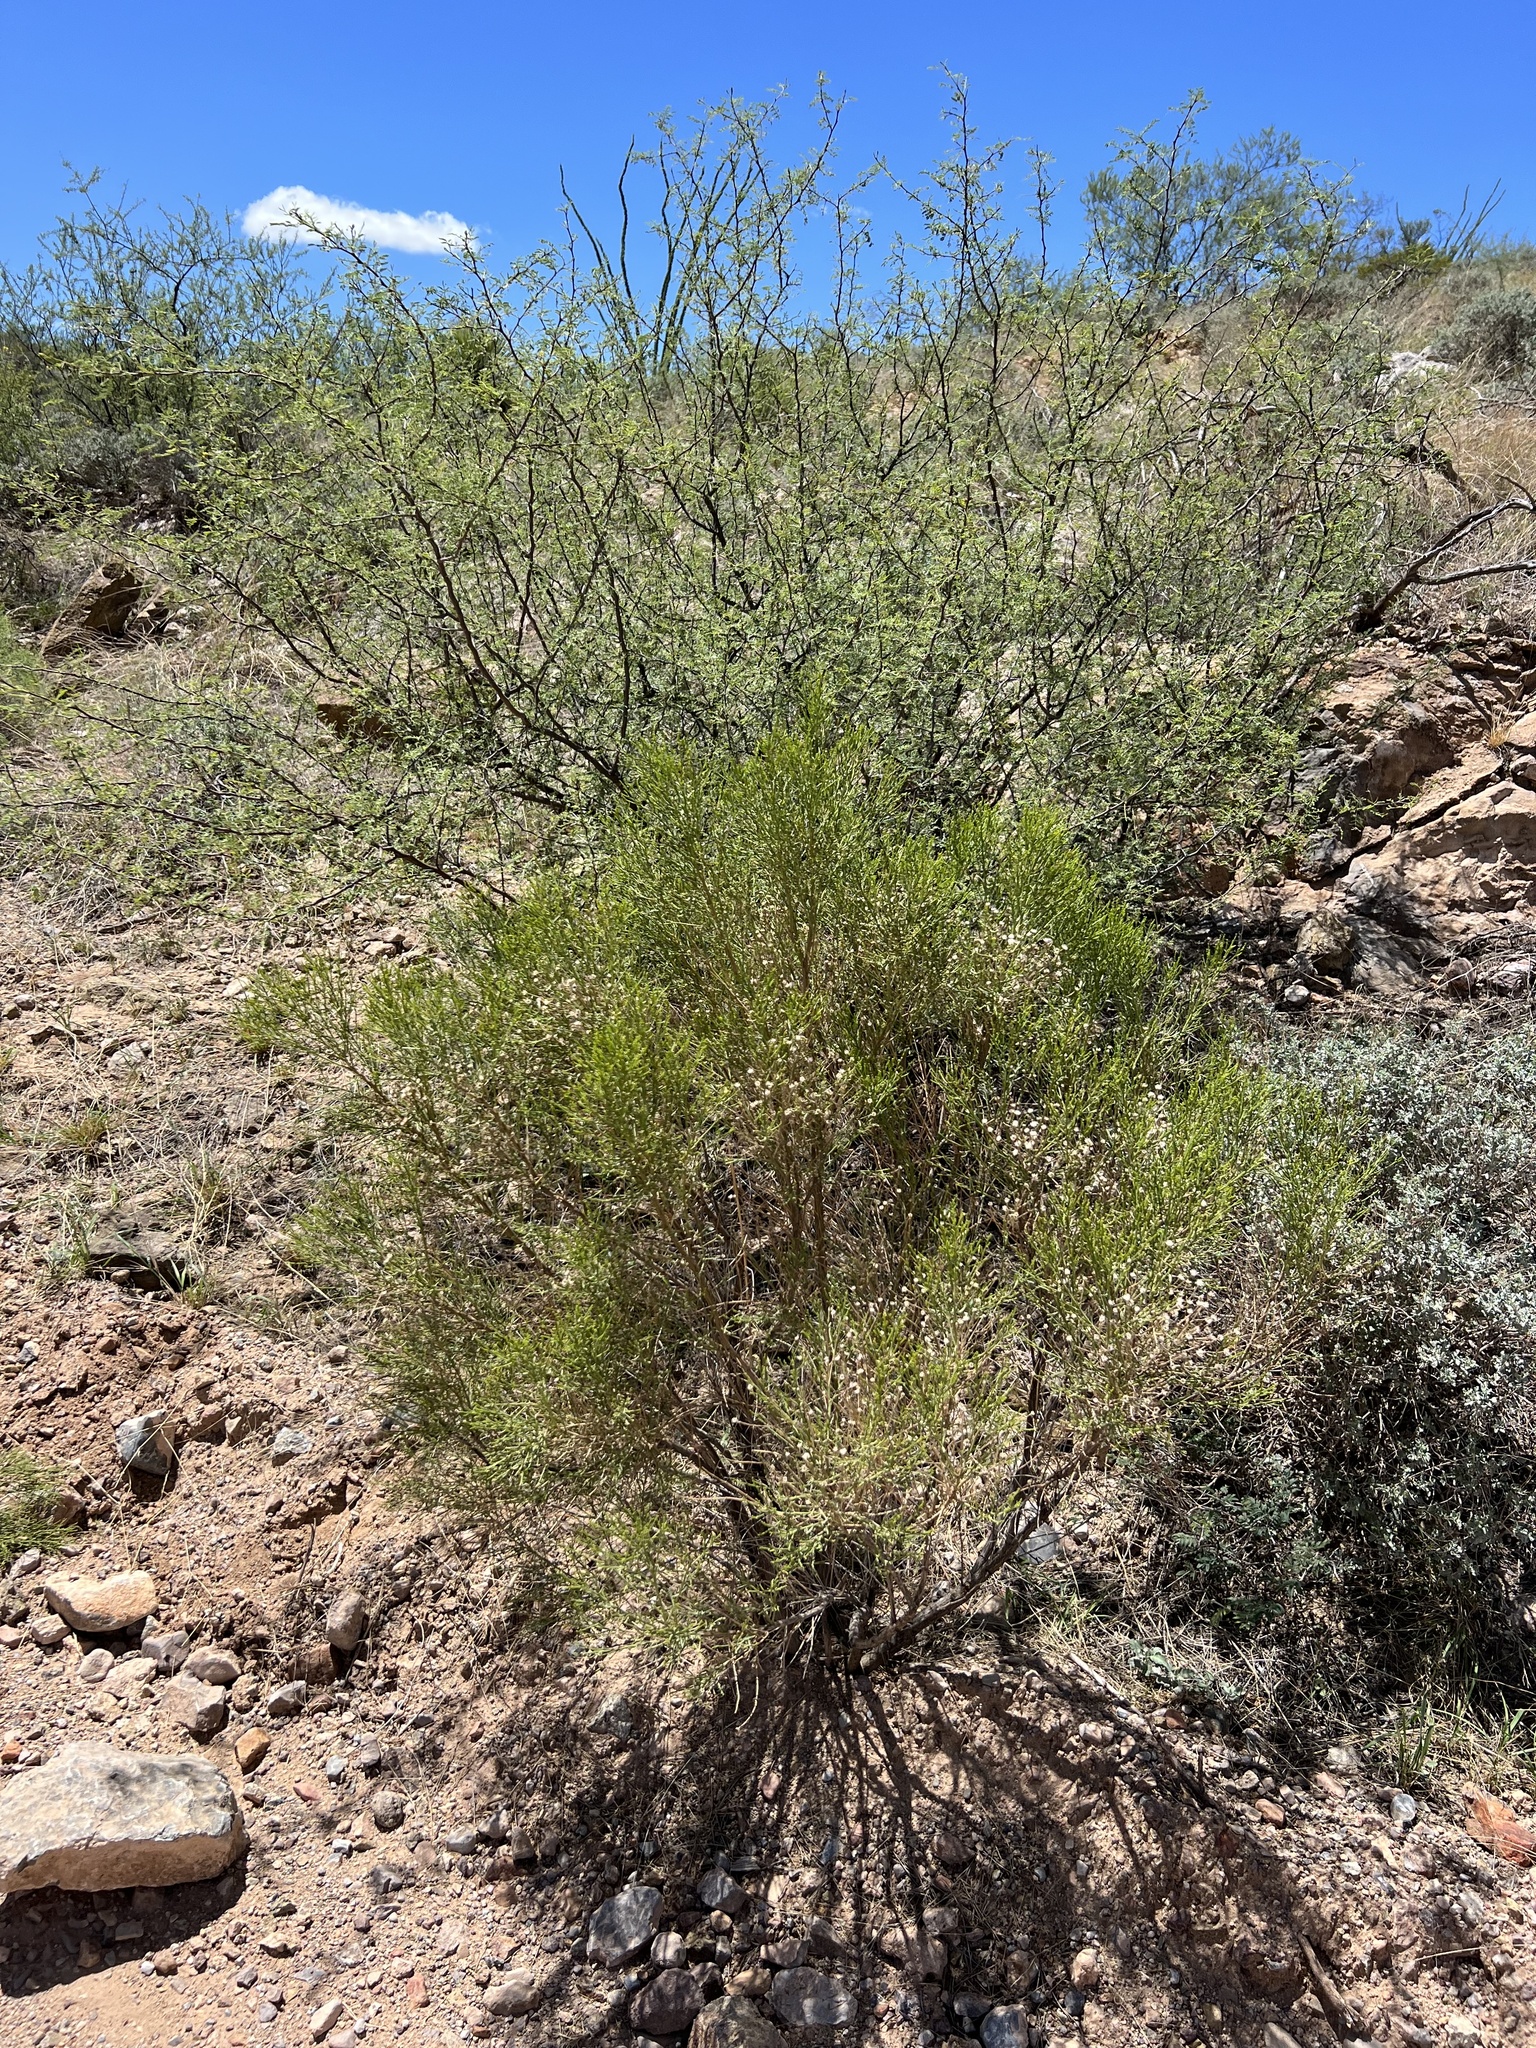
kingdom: Plantae
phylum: Tracheophyta
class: Magnoliopsida
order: Zygophyllales
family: Zygophyllaceae
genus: Larrea
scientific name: Larrea tridentata
